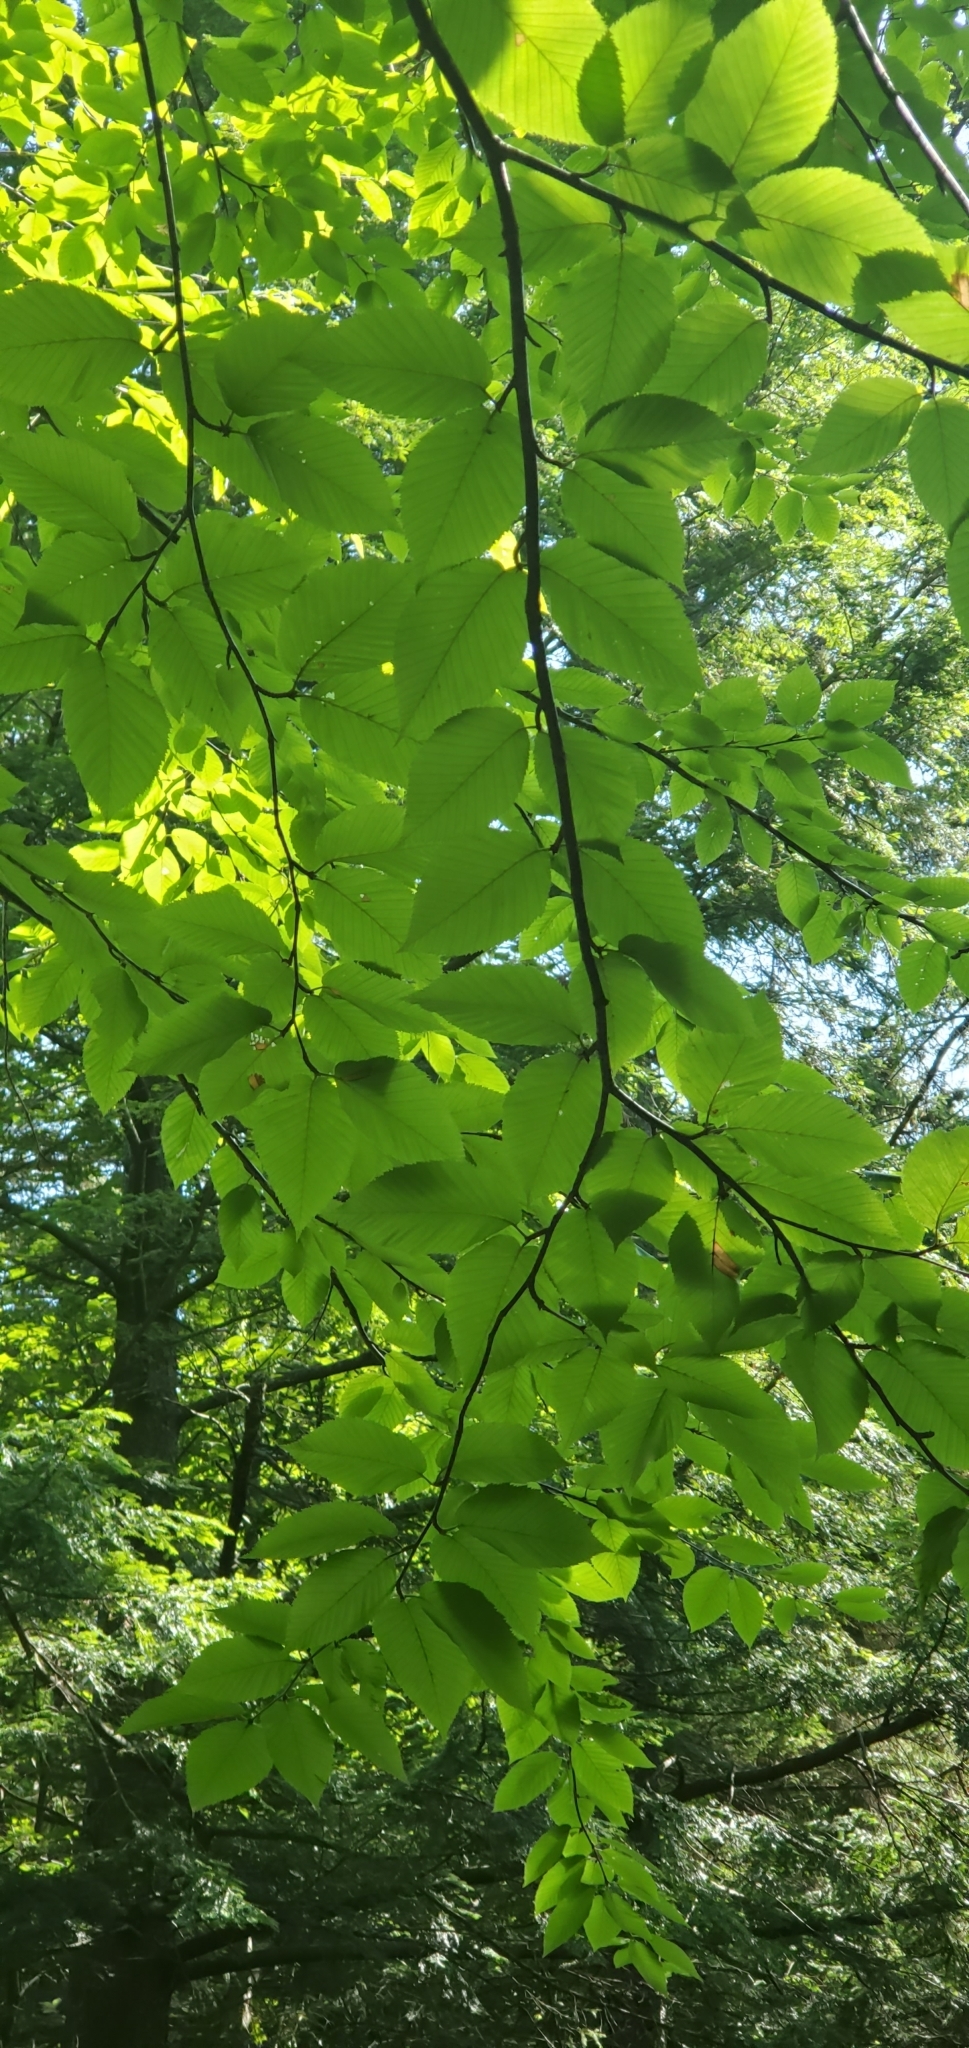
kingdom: Plantae
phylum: Tracheophyta
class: Magnoliopsida
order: Fagales
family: Betulaceae
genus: Betula
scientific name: Betula alleghaniensis
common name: Yellow birch
